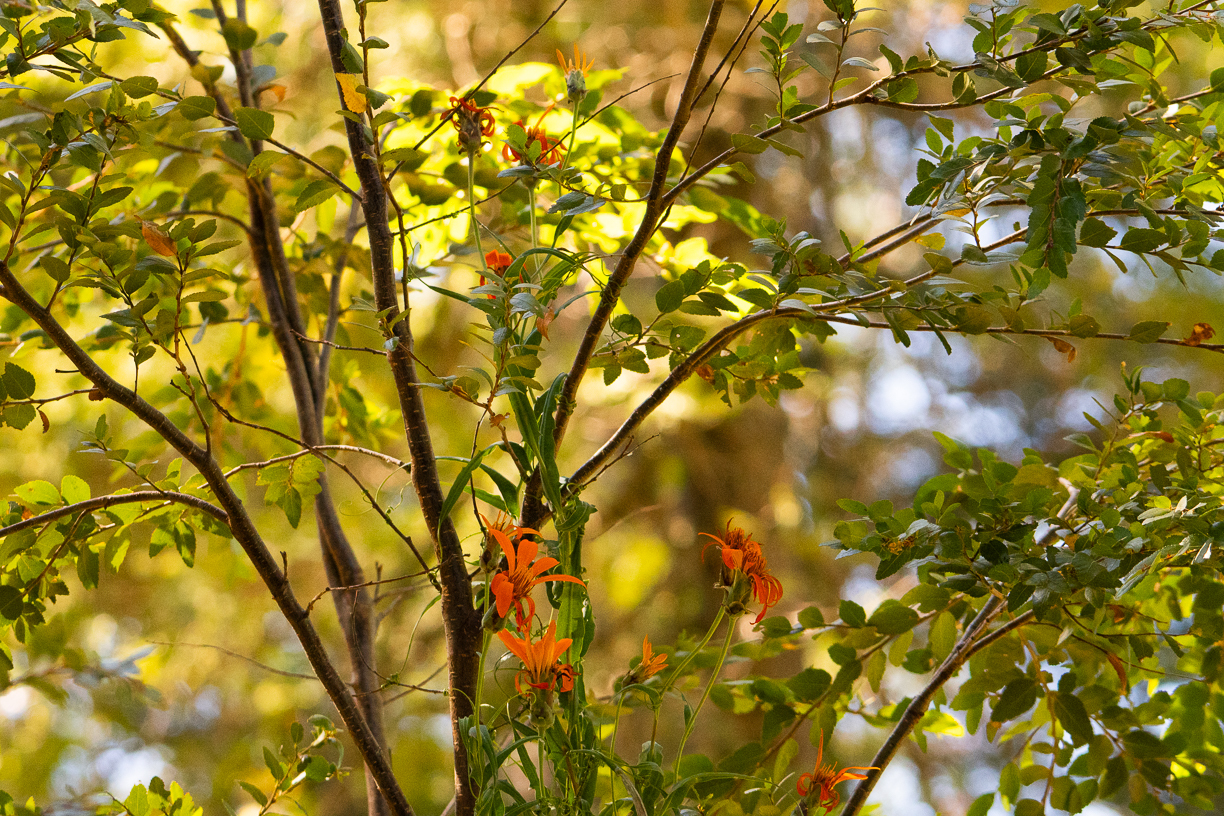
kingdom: Plantae
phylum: Tracheophyta
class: Magnoliopsida
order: Asterales
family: Asteraceae
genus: Mutisia
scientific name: Mutisia decurrens
